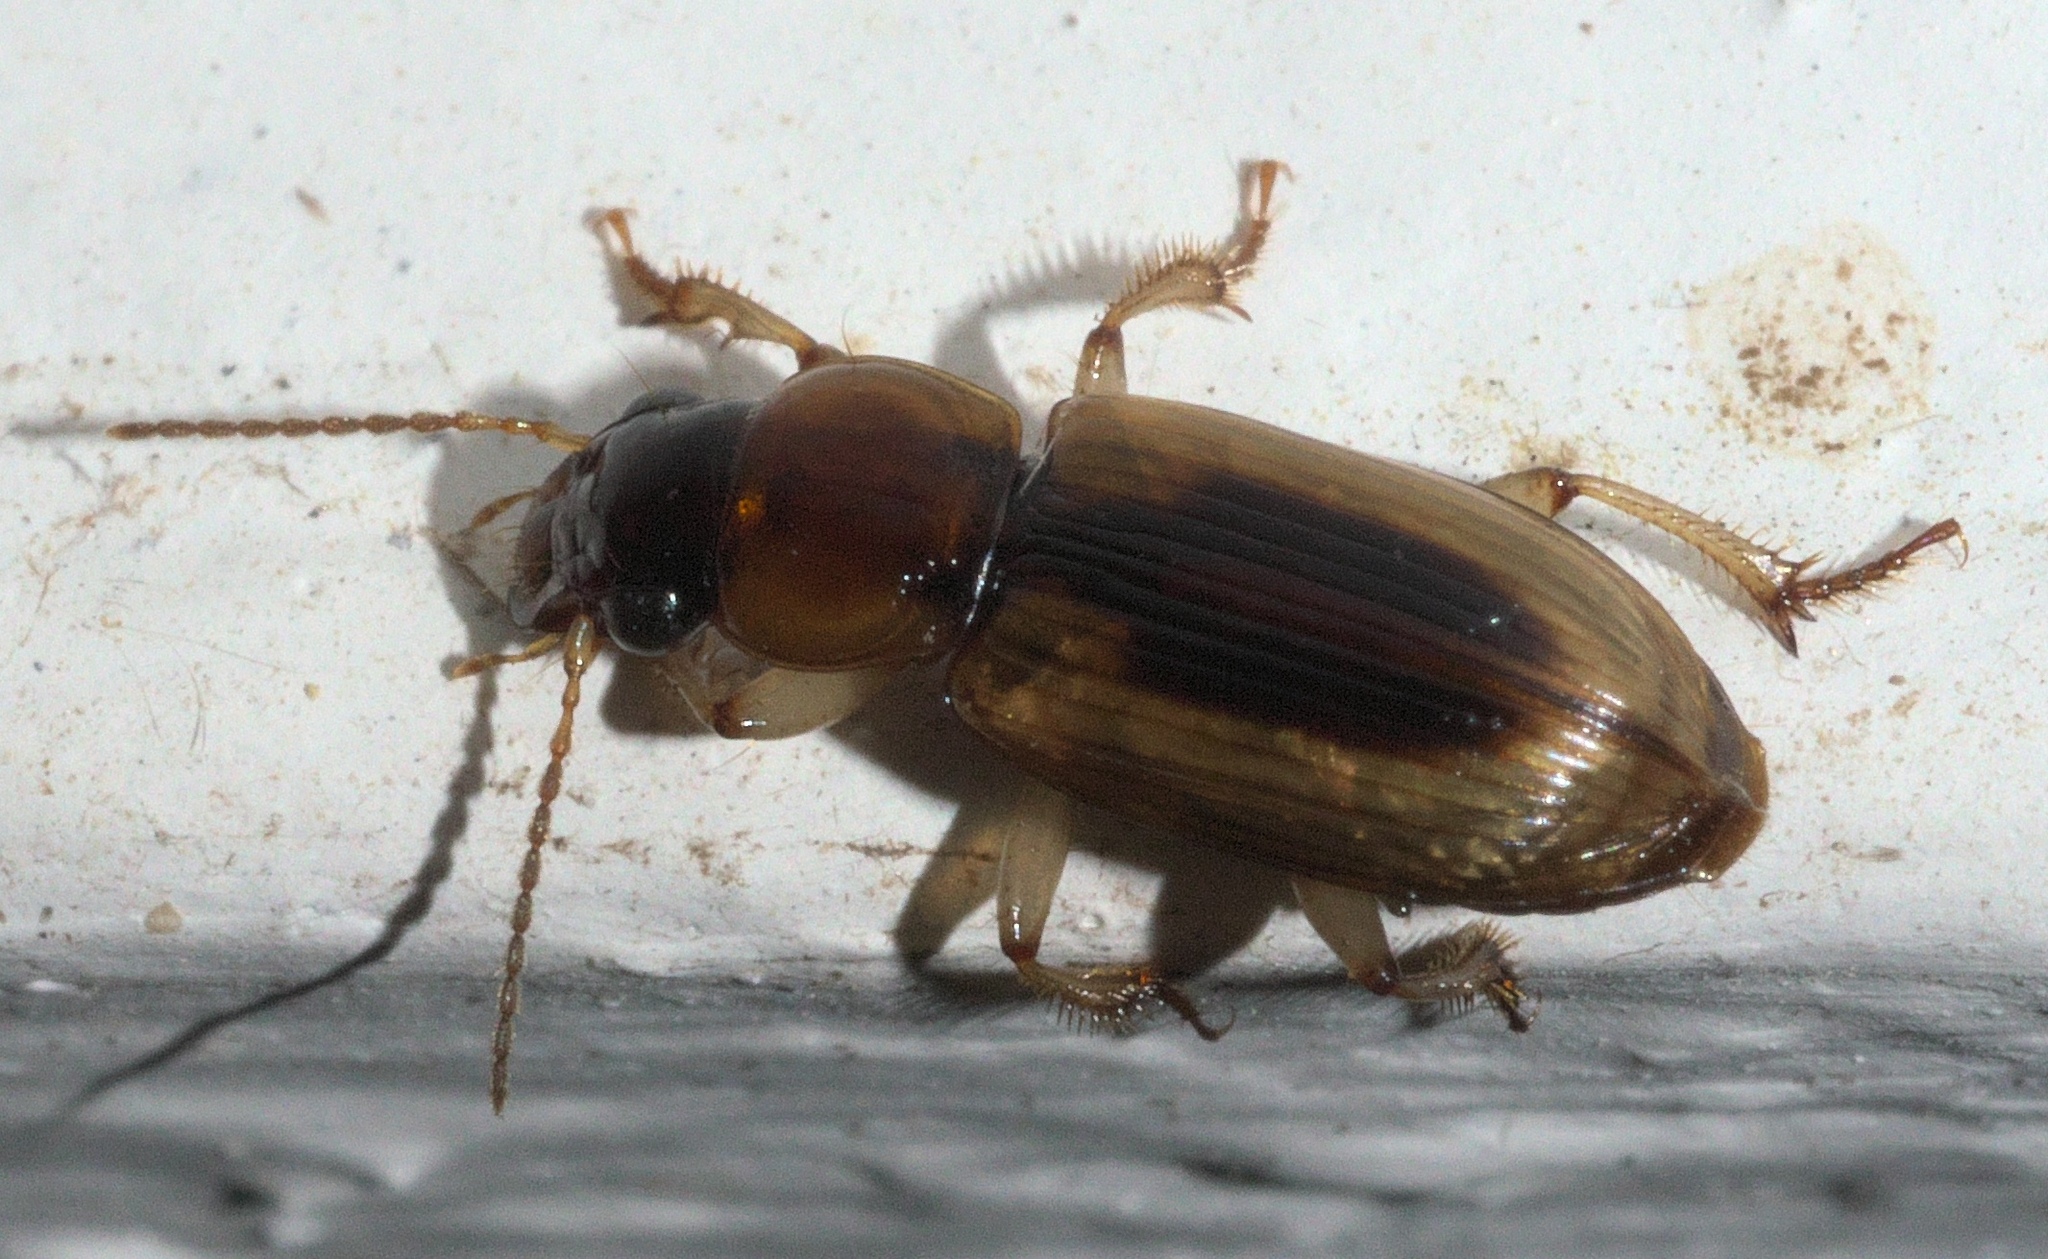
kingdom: Animalia
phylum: Arthropoda
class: Insecta
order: Coleoptera
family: Carabidae
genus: Stenolophus
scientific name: Stenolophus lecontei
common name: Leconte's seedcorn beetle
